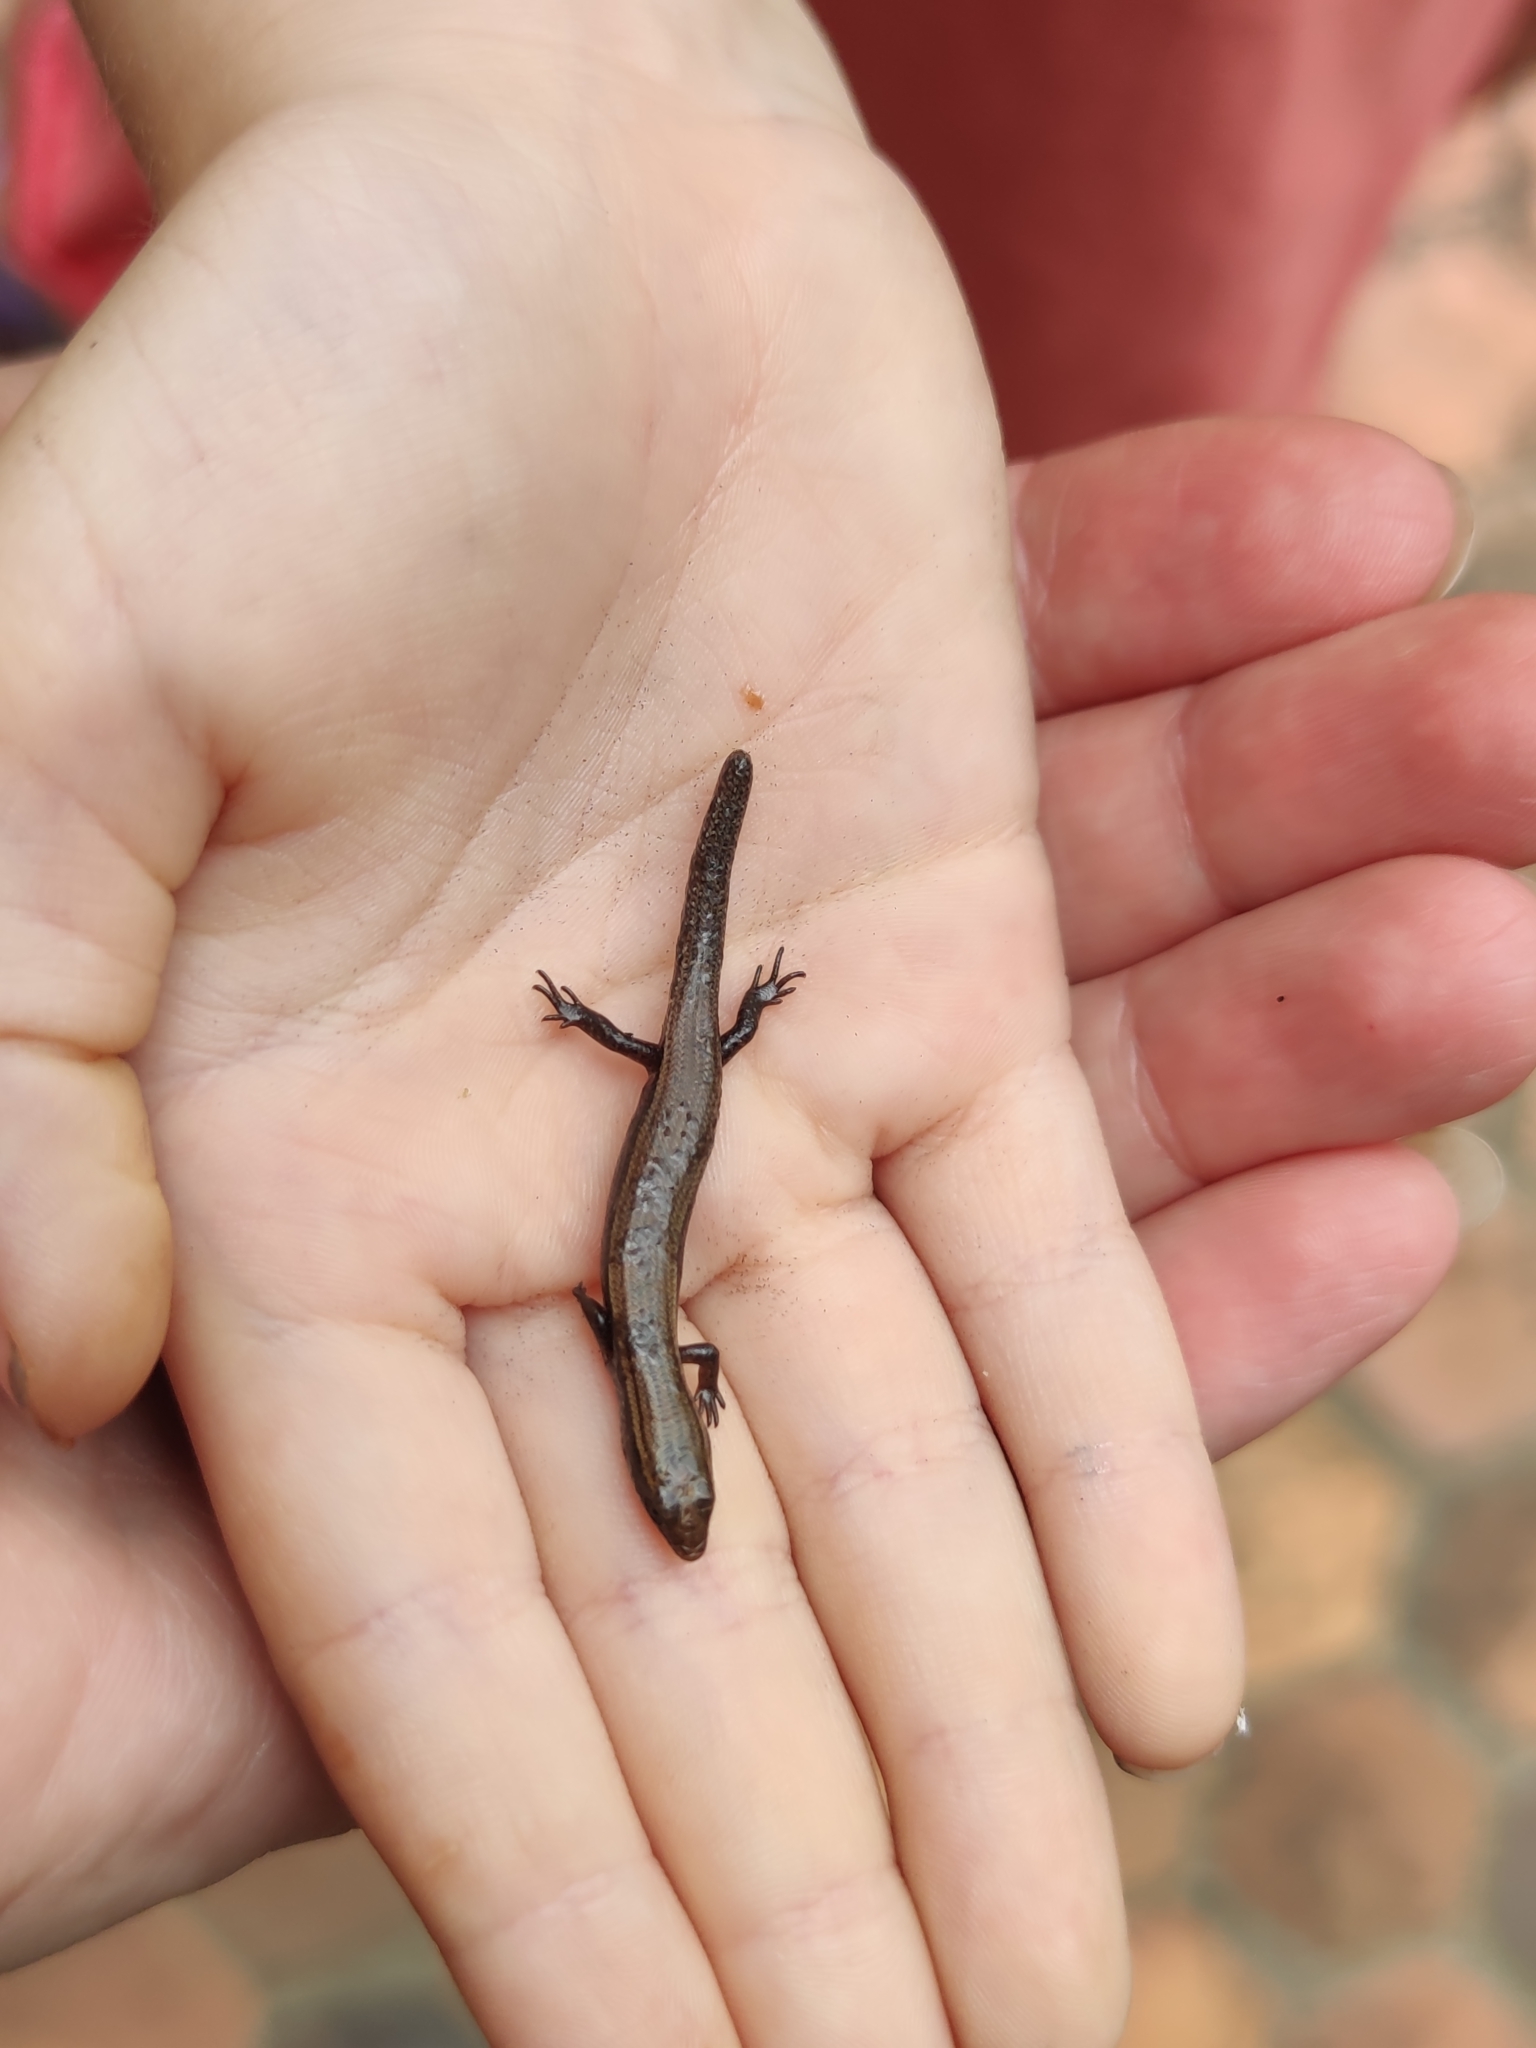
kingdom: Animalia
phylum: Chordata
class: Squamata
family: Scincidae
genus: Subdoluseps
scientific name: Subdoluseps bowringii
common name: Christmas island grass-skink
